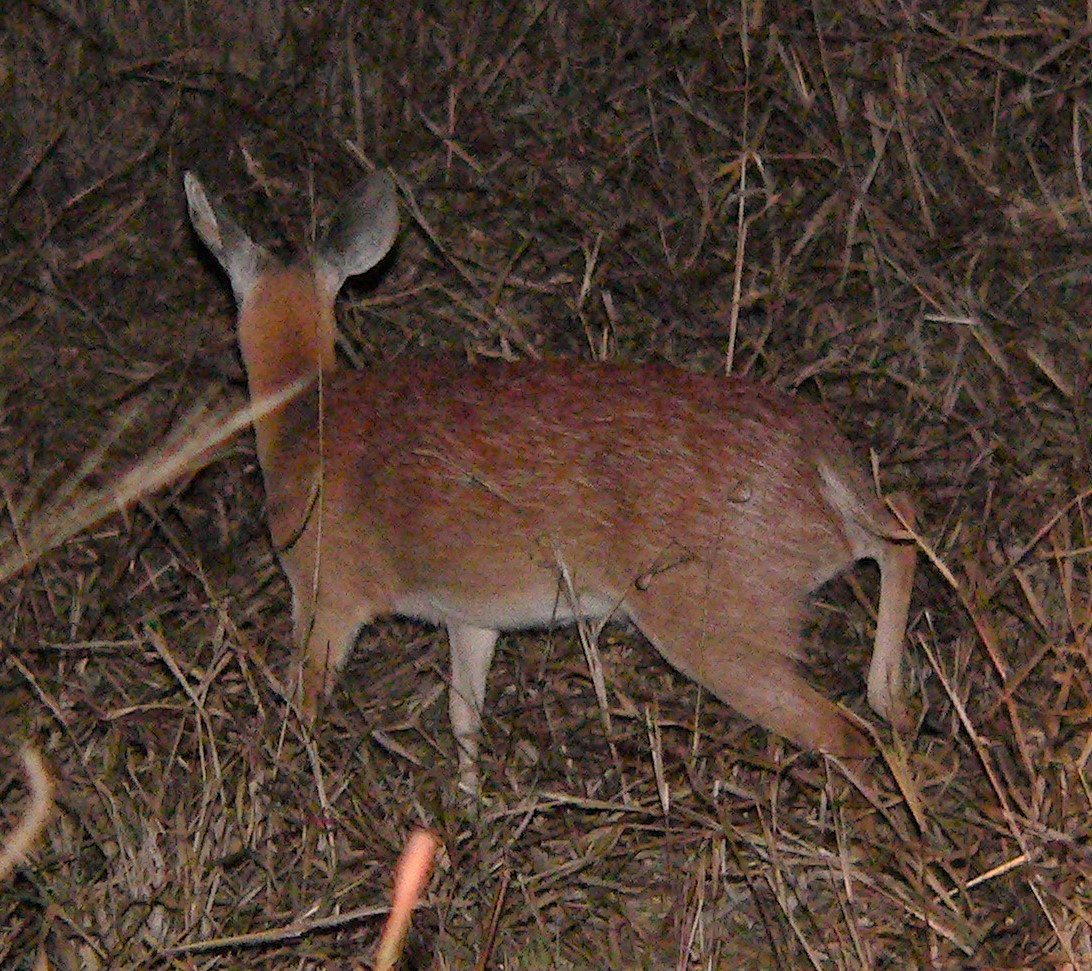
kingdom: Animalia
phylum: Chordata
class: Mammalia
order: Artiodactyla
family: Bovidae
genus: Raphicerus
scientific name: Raphicerus sharpei
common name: Sharpe's grysbok
